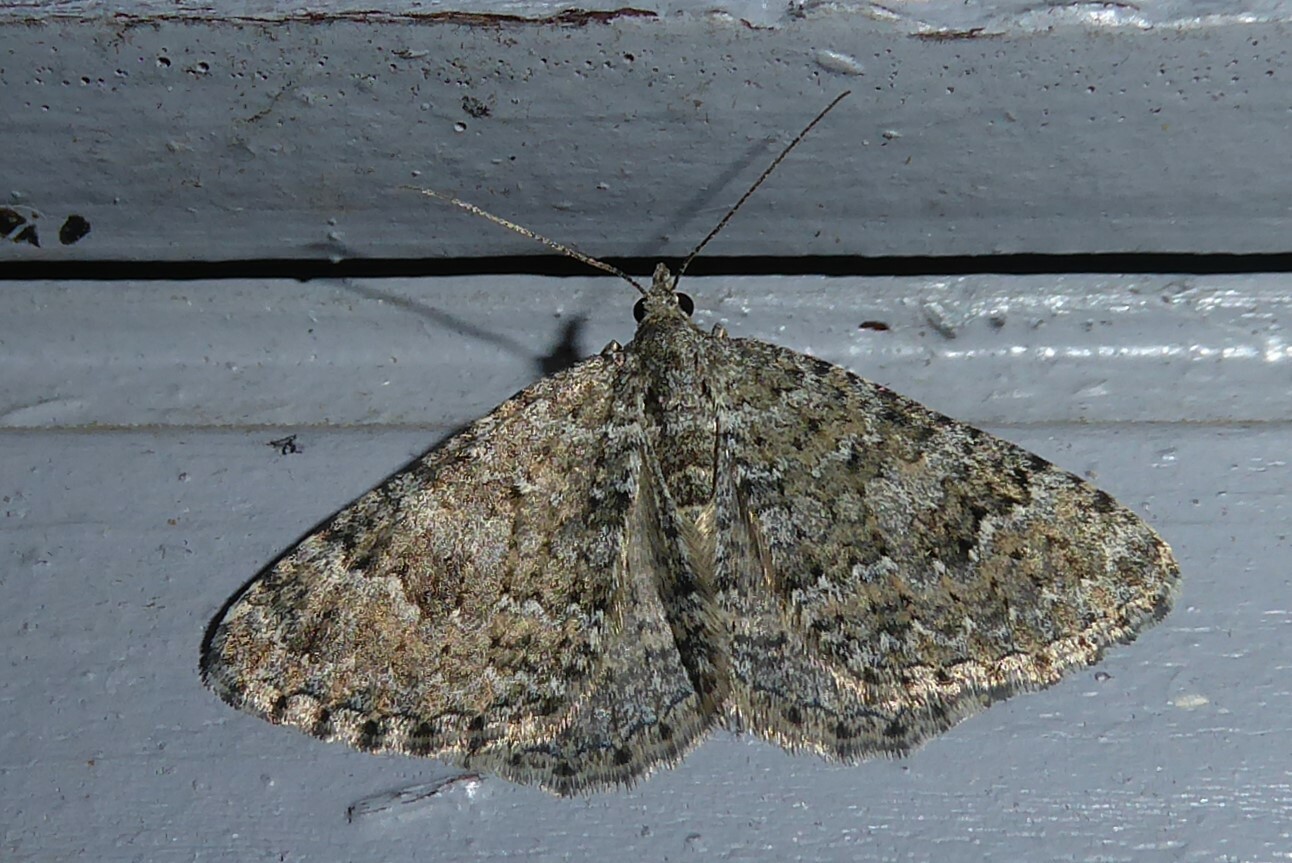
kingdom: Animalia
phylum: Arthropoda
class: Insecta
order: Lepidoptera
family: Geometridae
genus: Helastia
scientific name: Helastia corcularia
